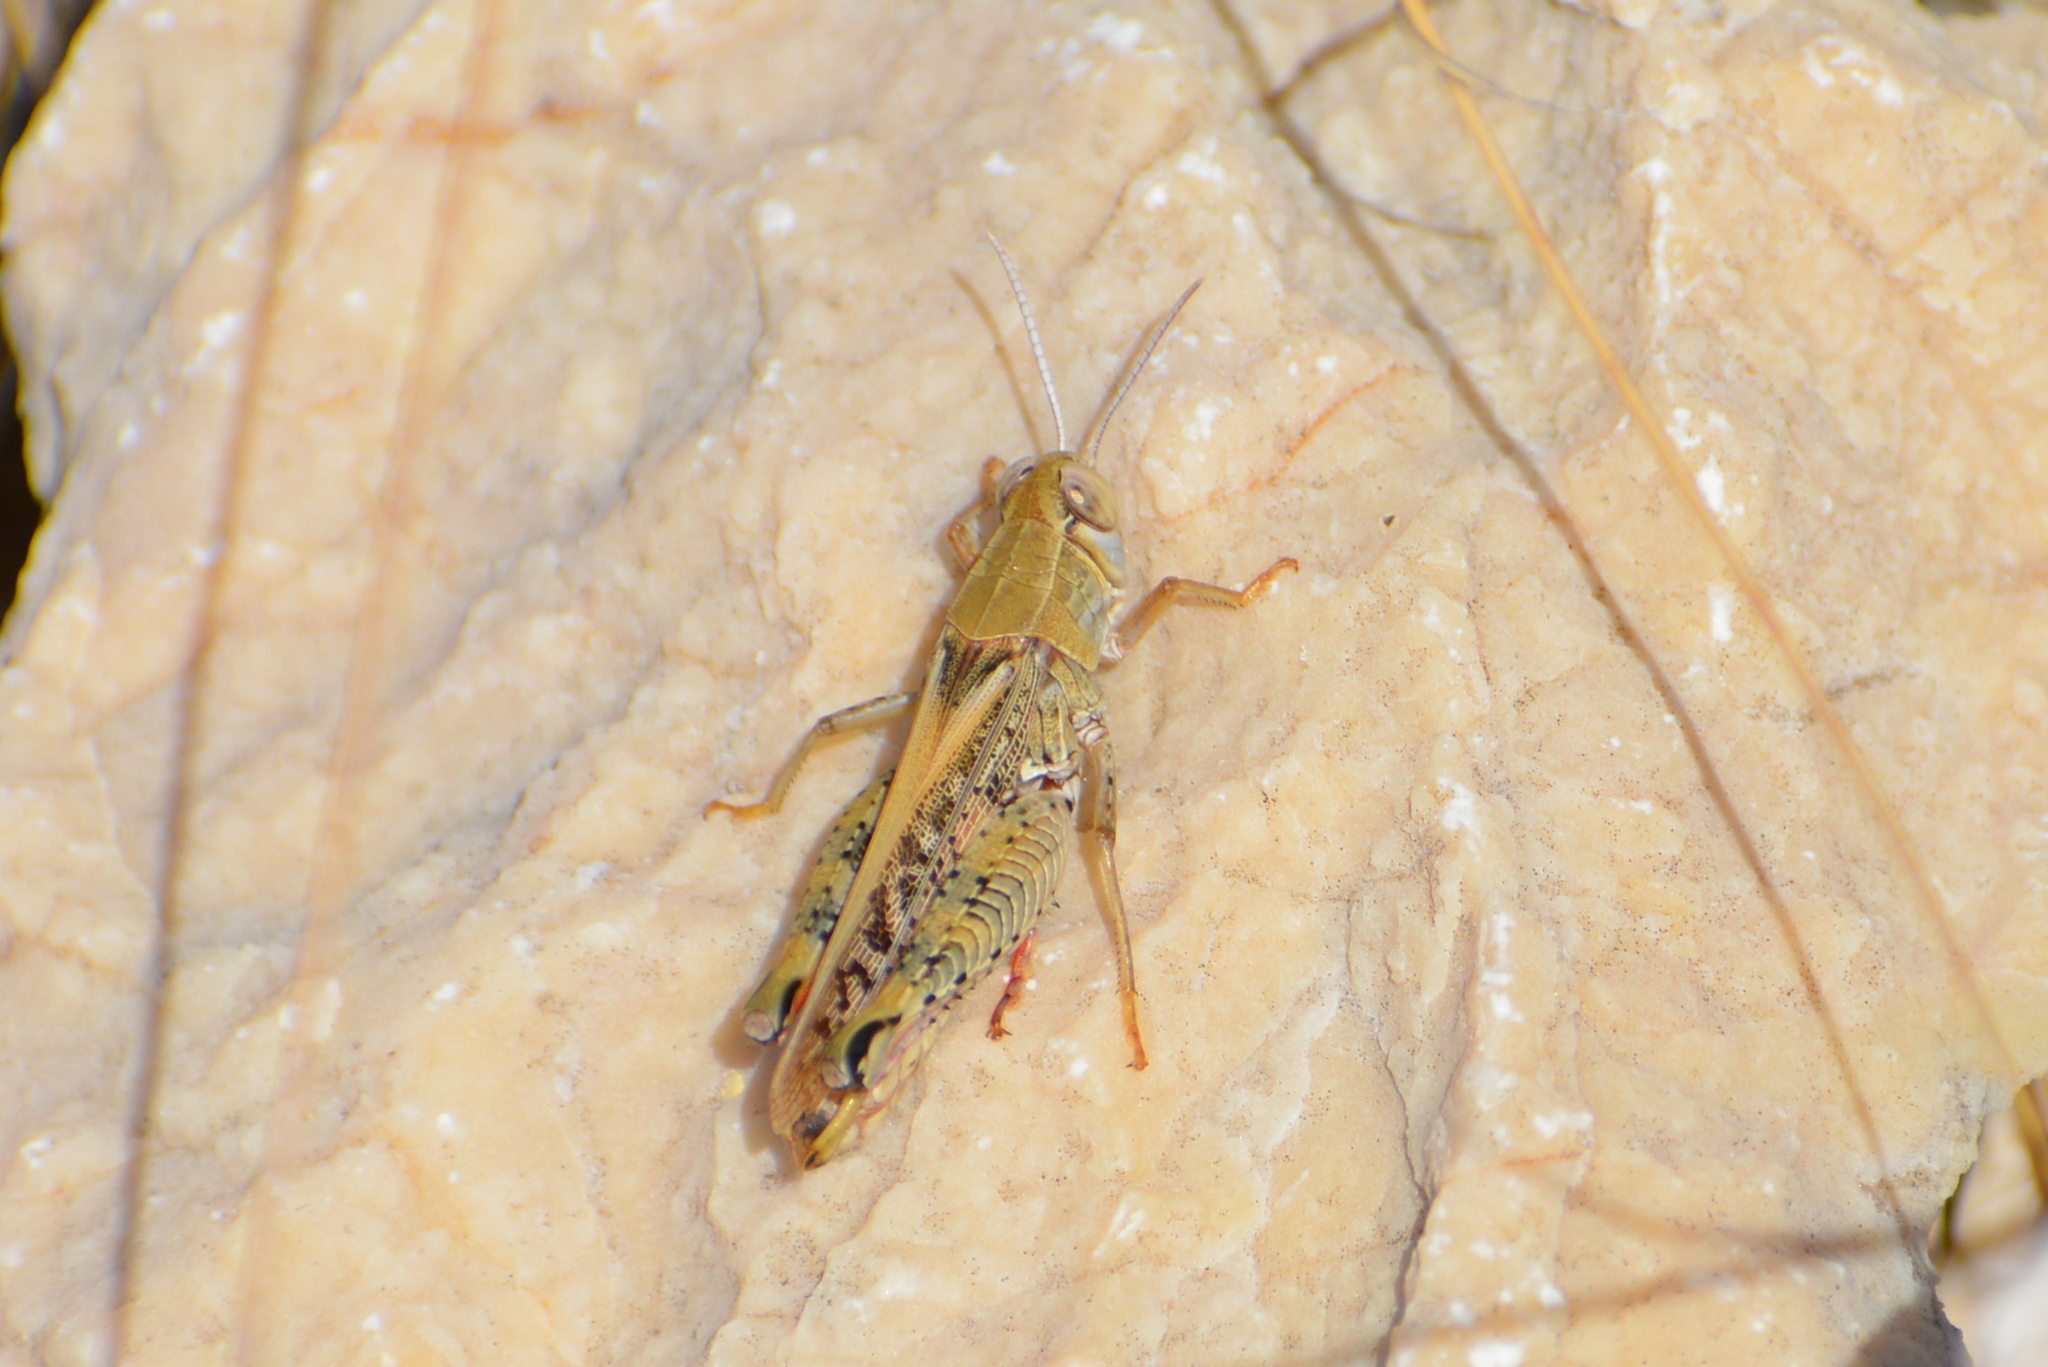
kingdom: Animalia
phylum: Arthropoda
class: Insecta
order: Orthoptera
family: Acrididae
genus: Calliptamus
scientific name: Calliptamus italicus
